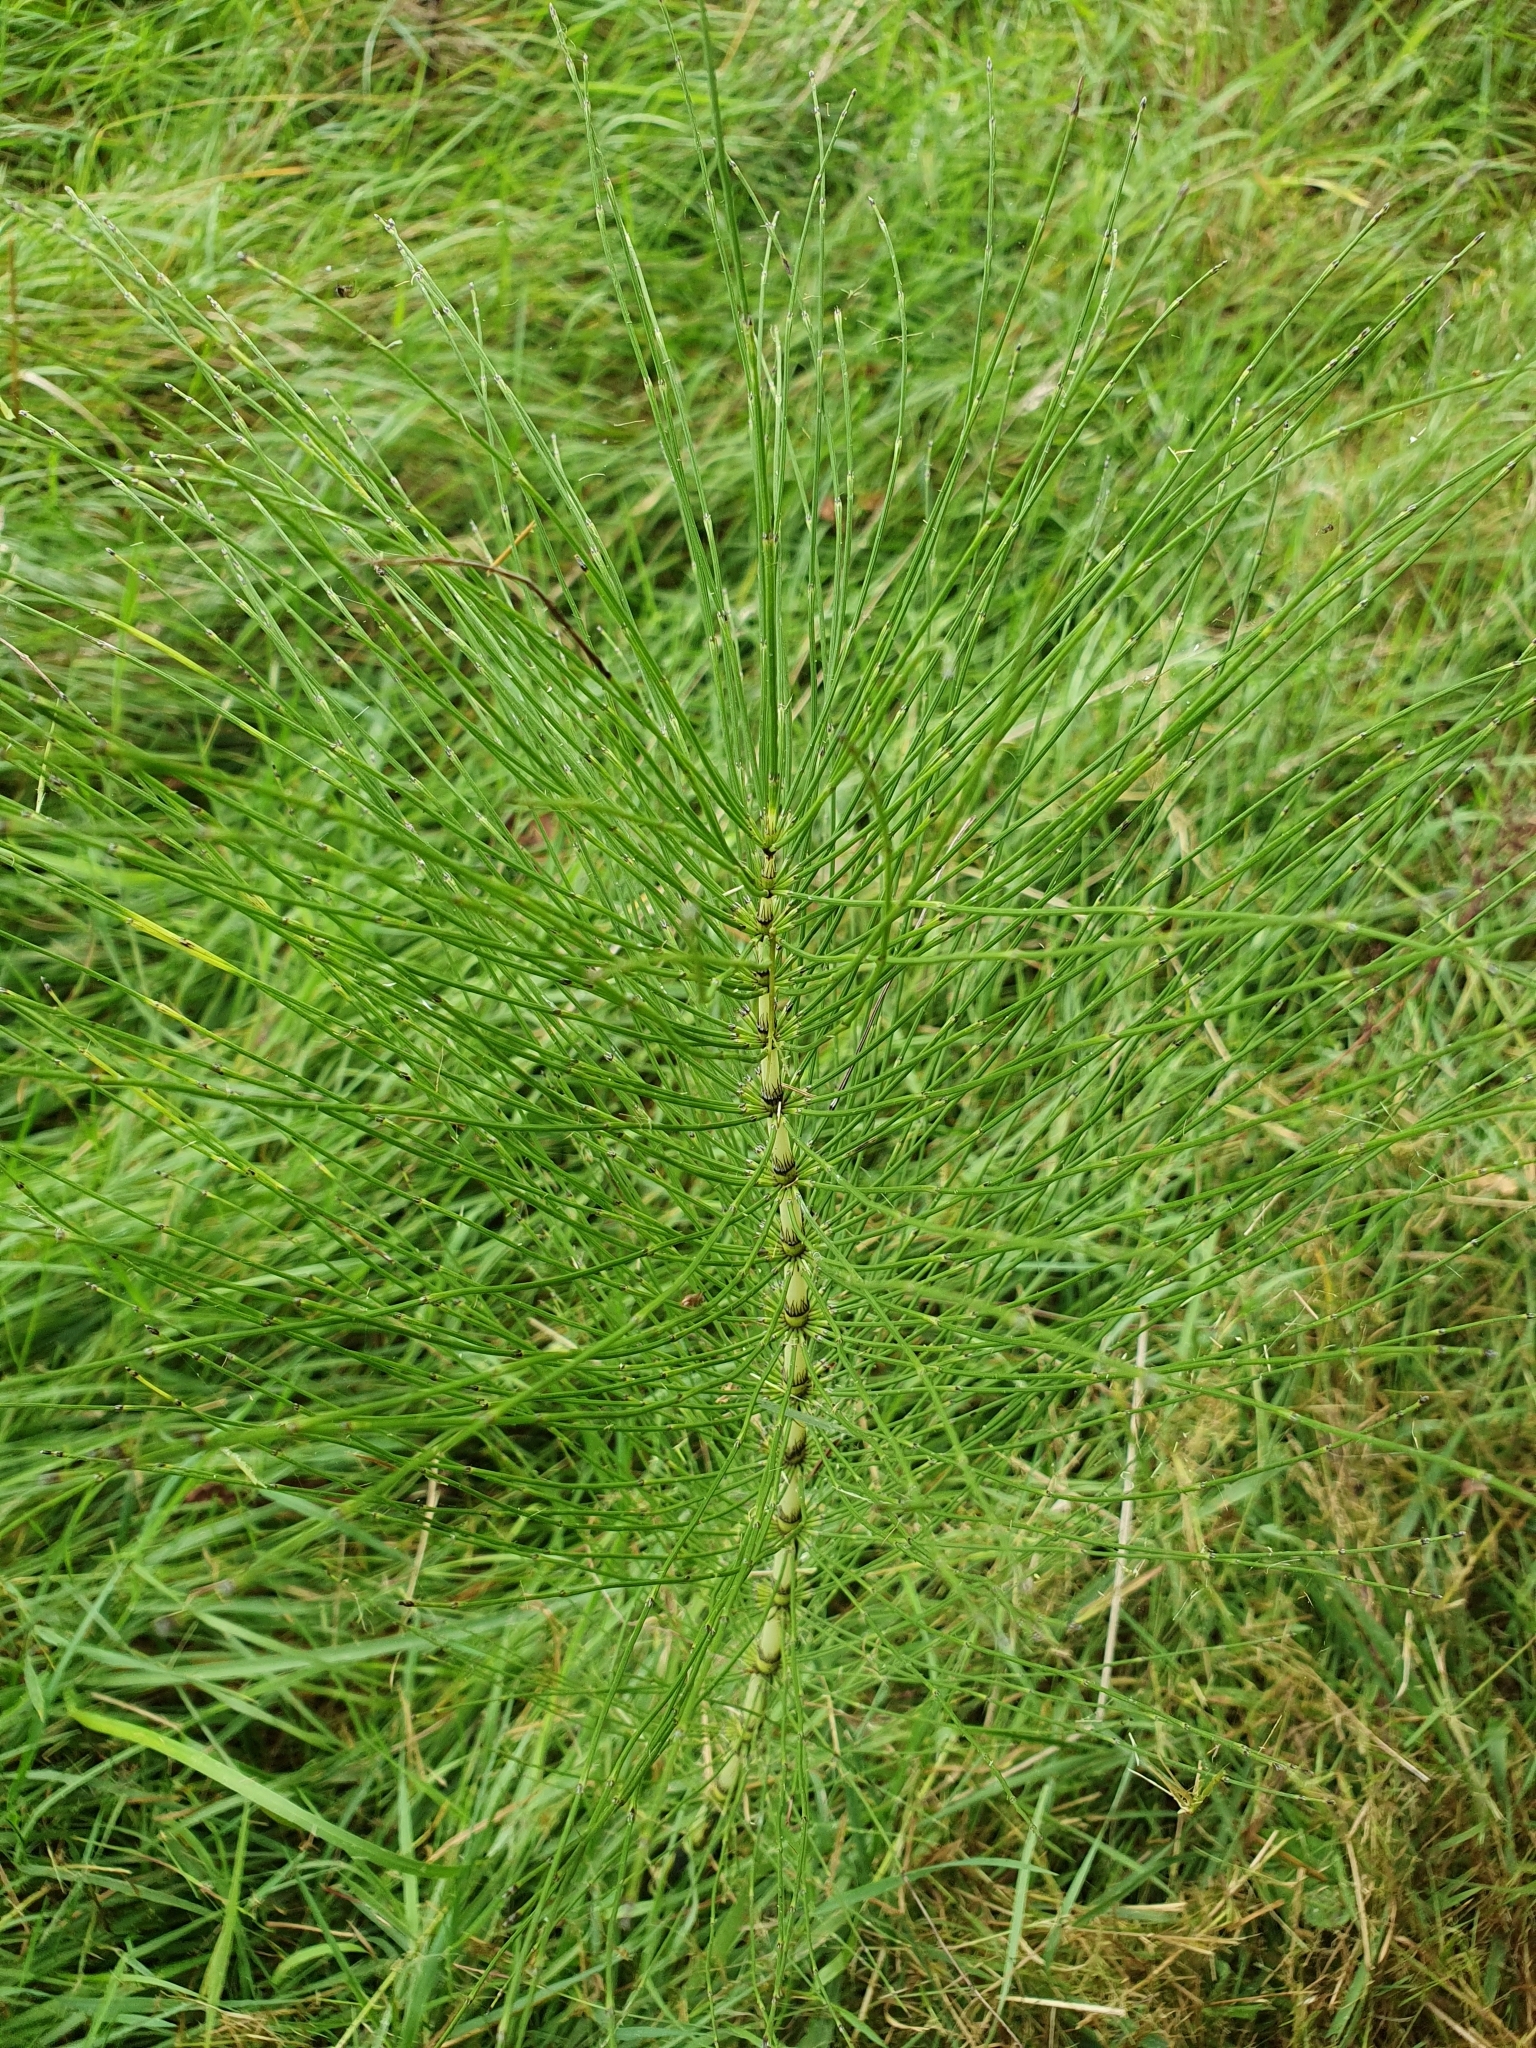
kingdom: Plantae
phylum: Tracheophyta
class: Polypodiopsida
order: Equisetales
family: Equisetaceae
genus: Equisetum
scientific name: Equisetum telmateia
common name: Great horsetail
